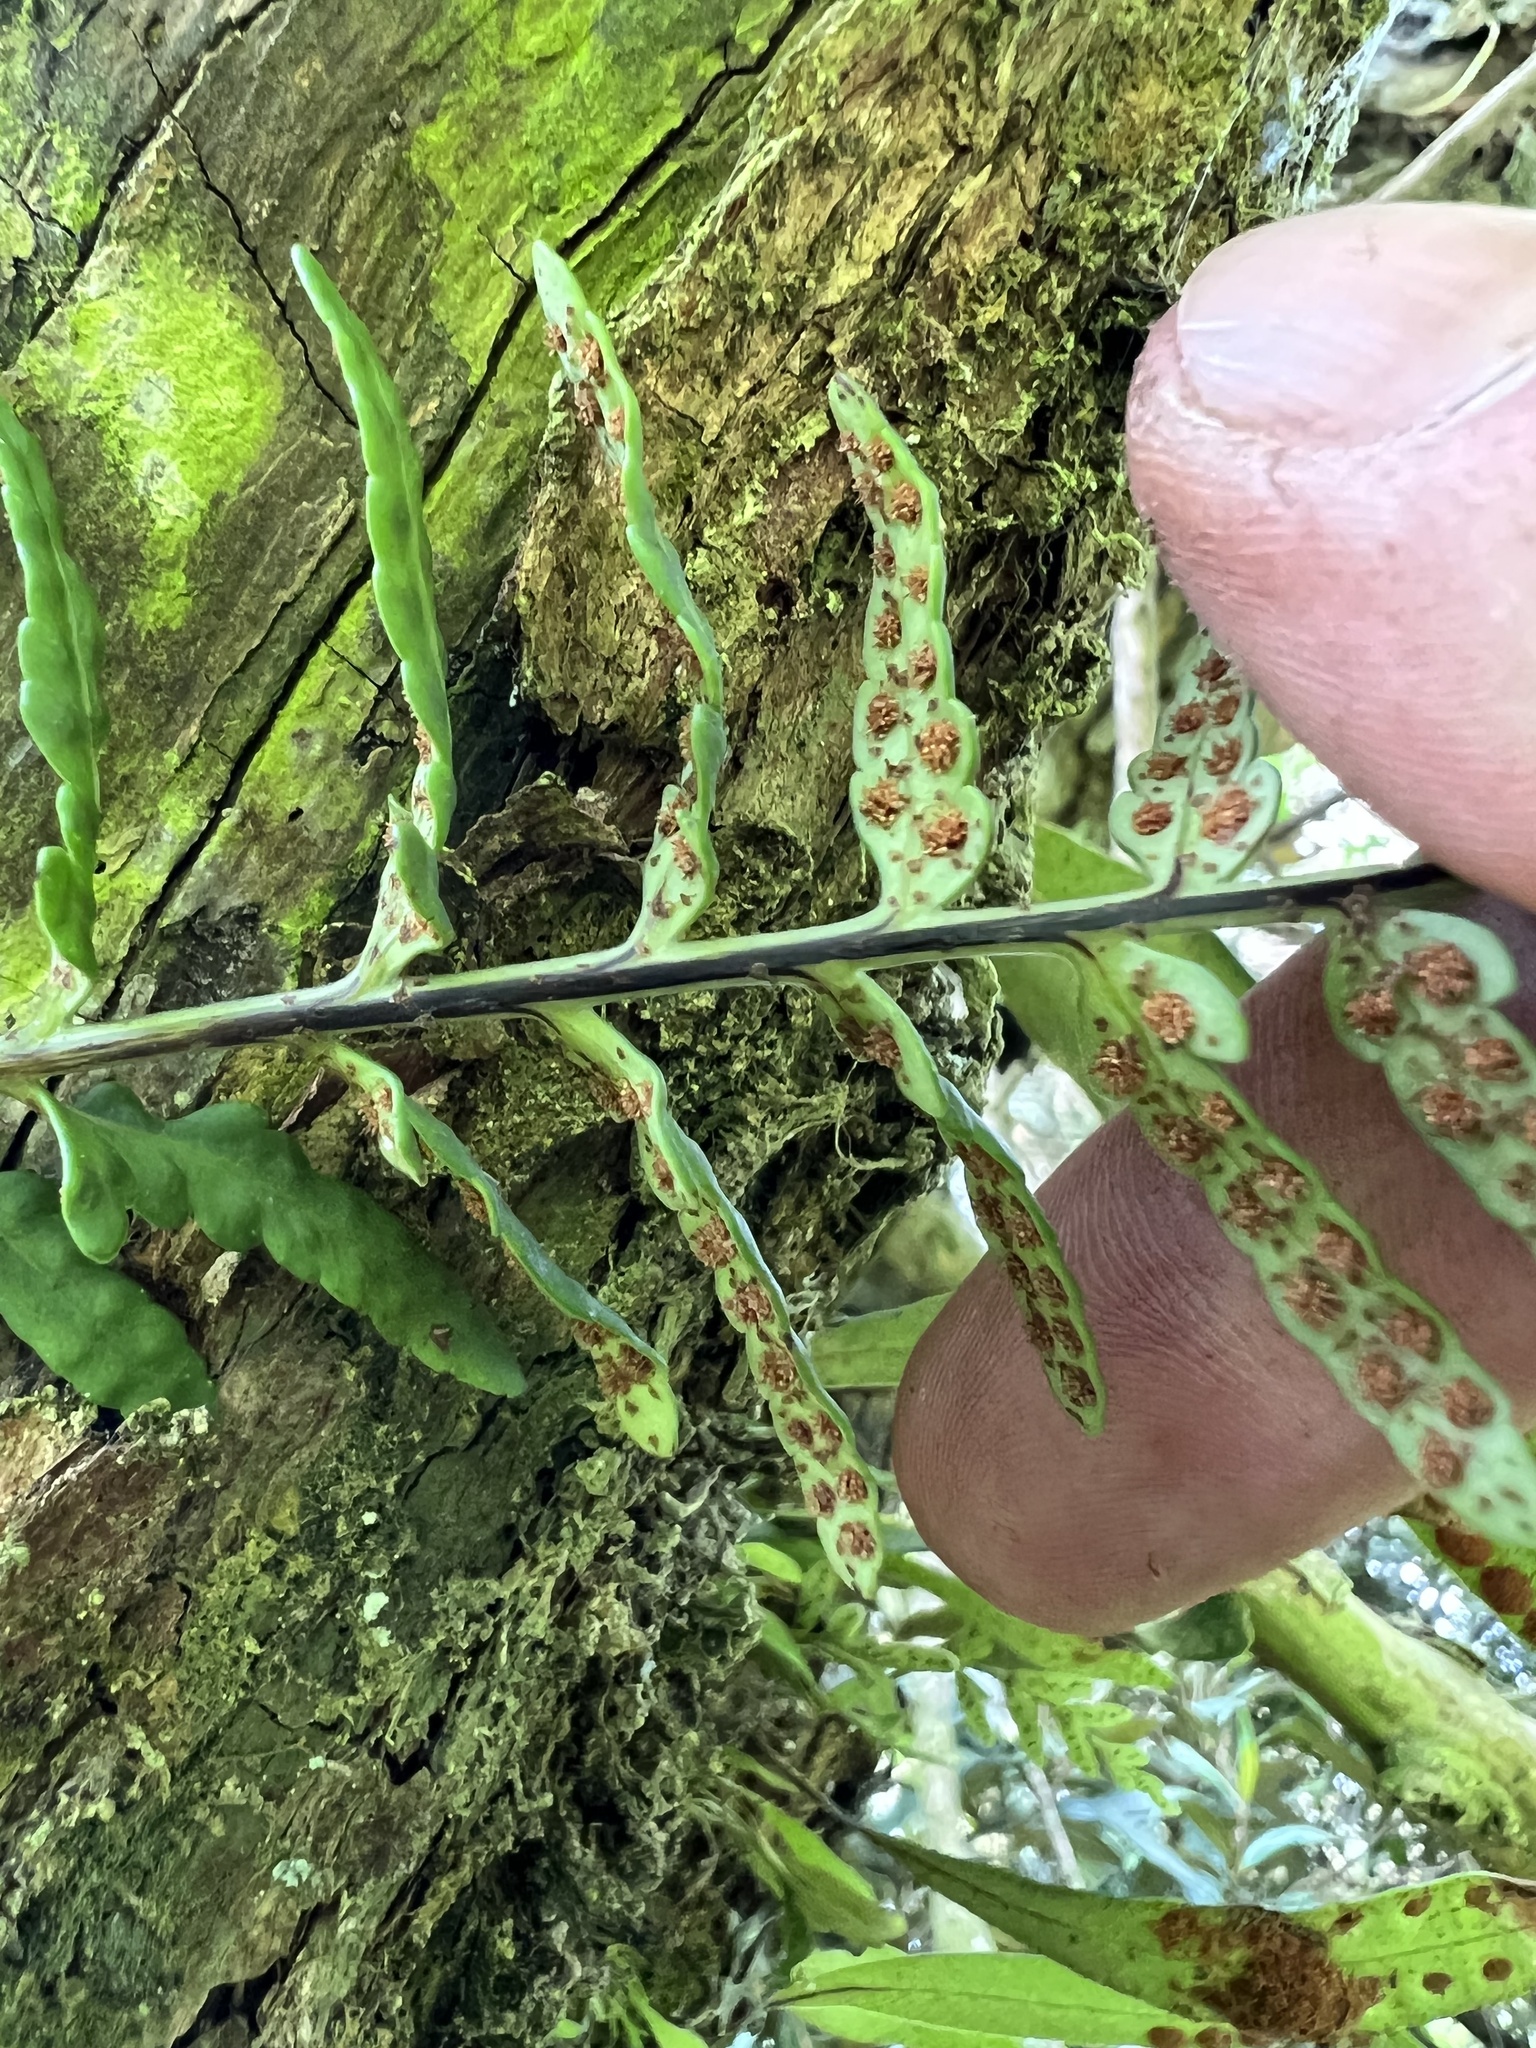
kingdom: Plantae
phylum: Tracheophyta
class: Polypodiopsida
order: Polypodiales
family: Polypodiaceae
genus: Pleopeltis
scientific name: Pleopeltis murora
